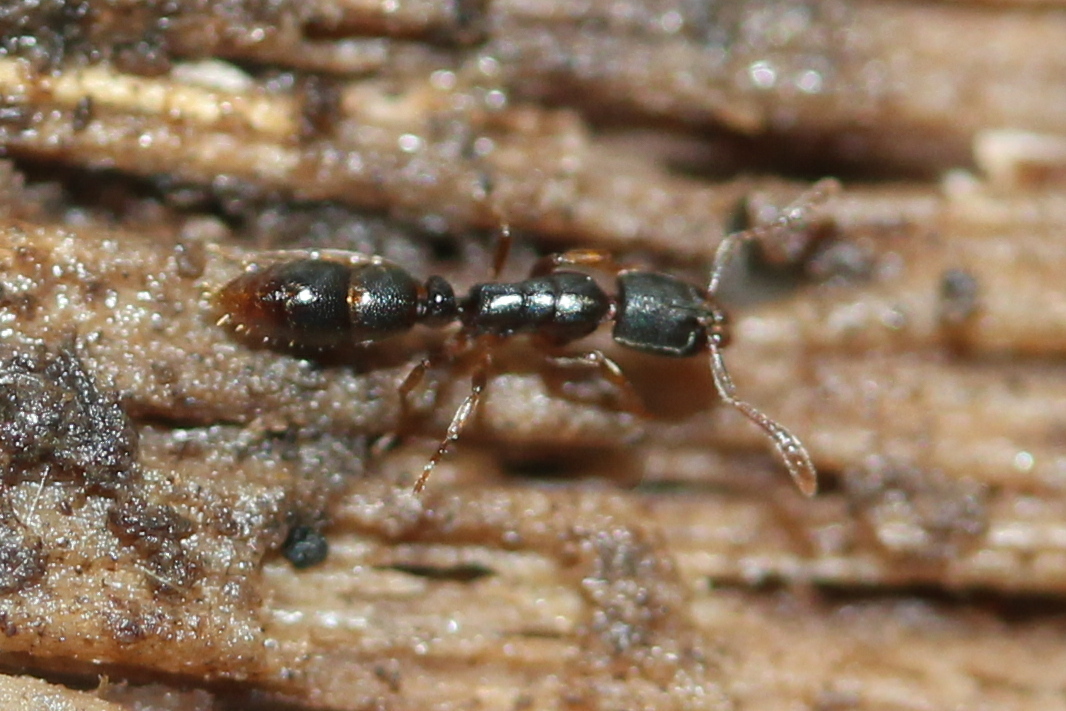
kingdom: Animalia
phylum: Arthropoda
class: Insecta
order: Hymenoptera
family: Formicidae
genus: Ponera
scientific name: Ponera pennsylvanica
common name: Pennsylvania ponera
